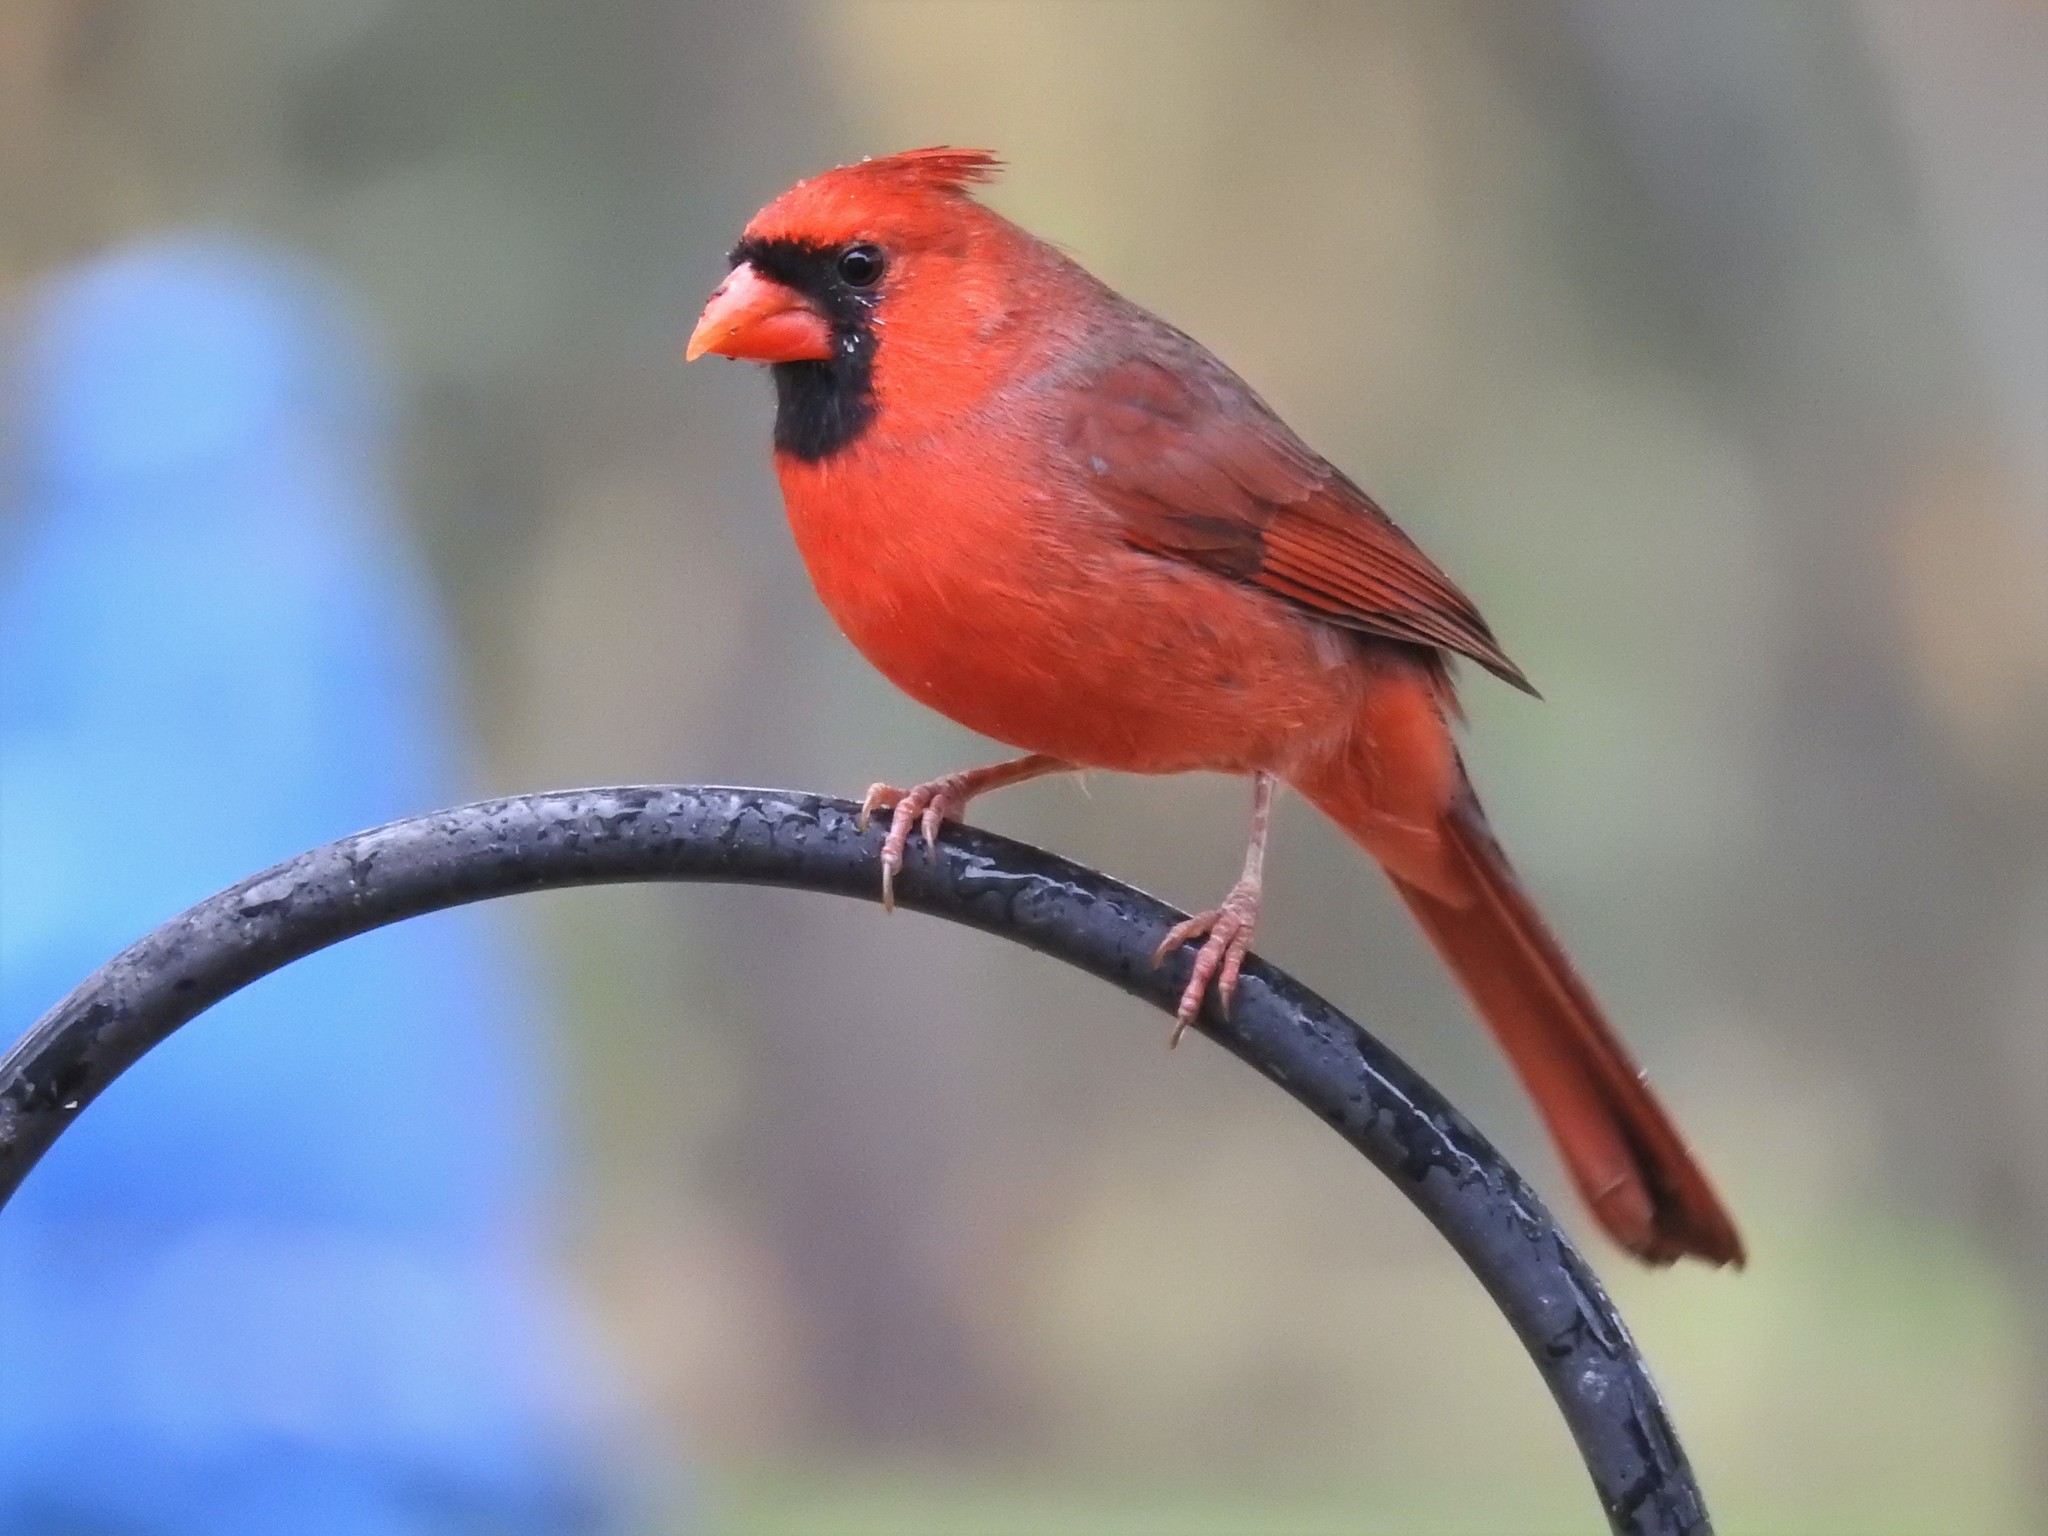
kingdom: Animalia
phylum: Chordata
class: Aves
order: Passeriformes
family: Cardinalidae
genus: Cardinalis
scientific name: Cardinalis cardinalis
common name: Northern cardinal
